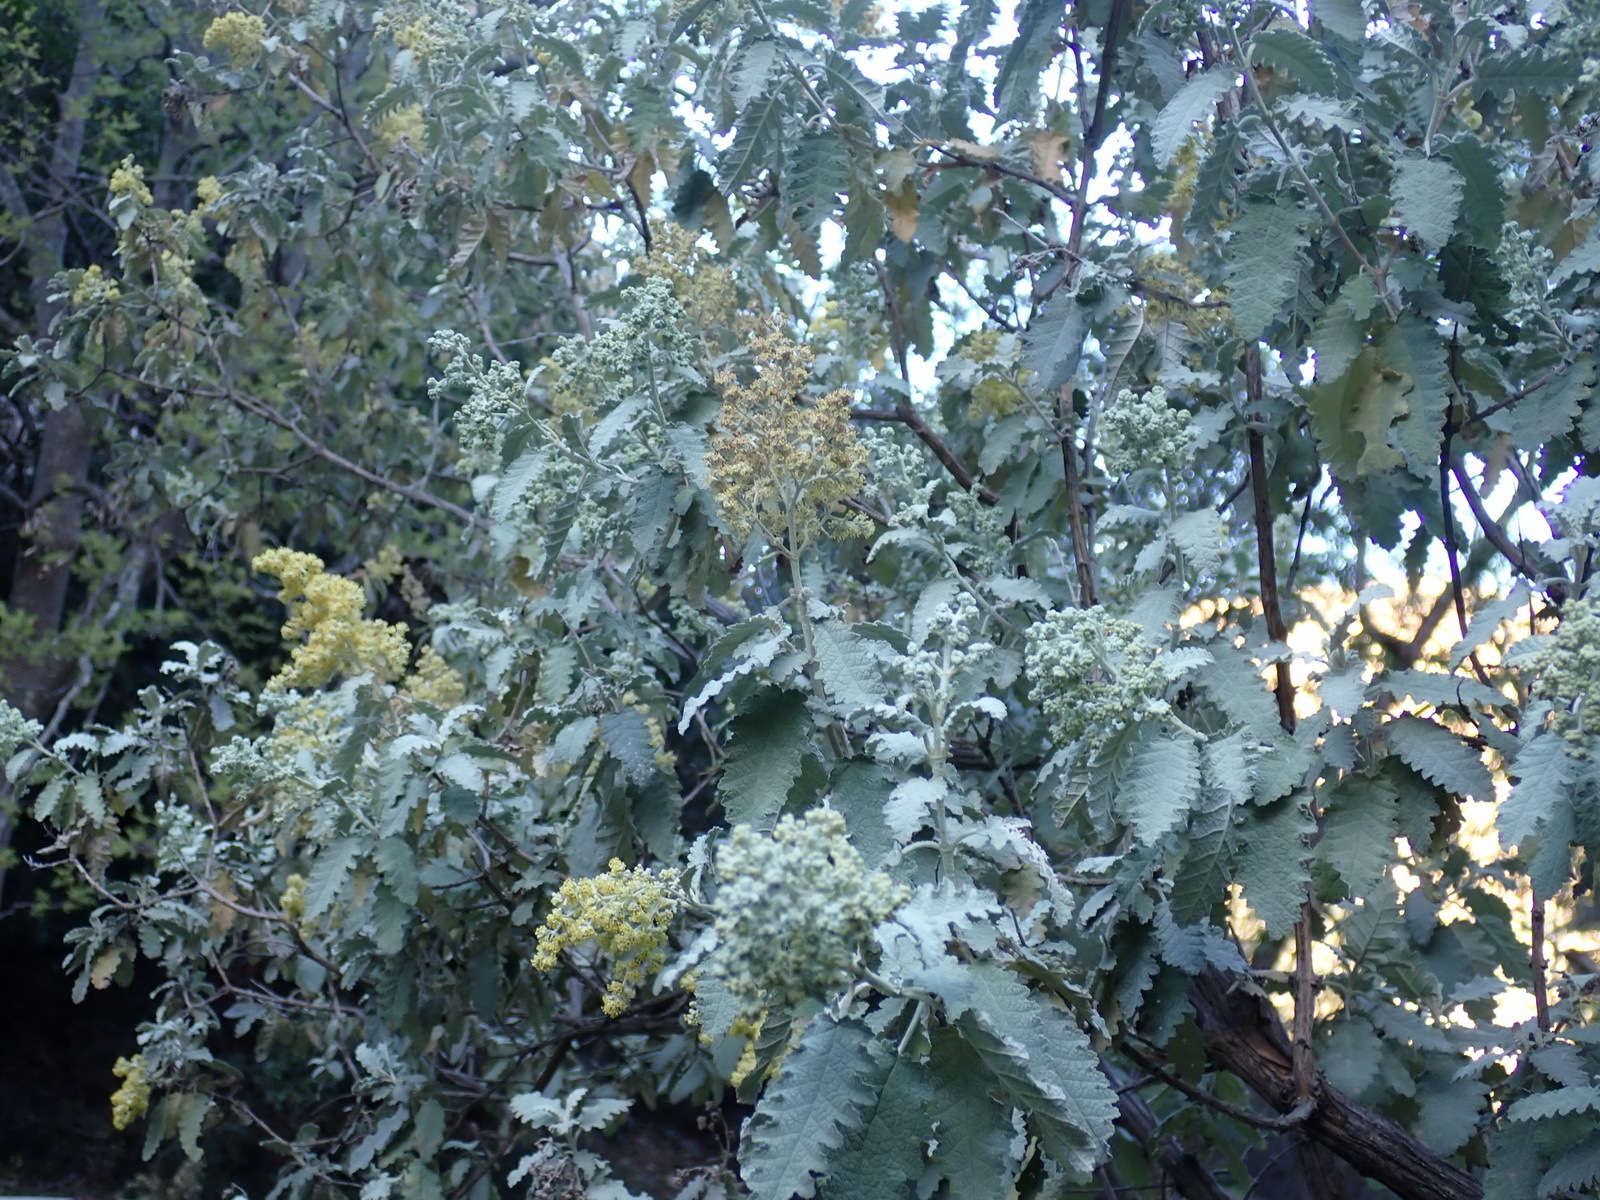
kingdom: Plantae
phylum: Tracheophyta
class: Magnoliopsida
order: Lamiales
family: Scrophulariaceae
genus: Buddleja
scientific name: Buddleja glomerata
